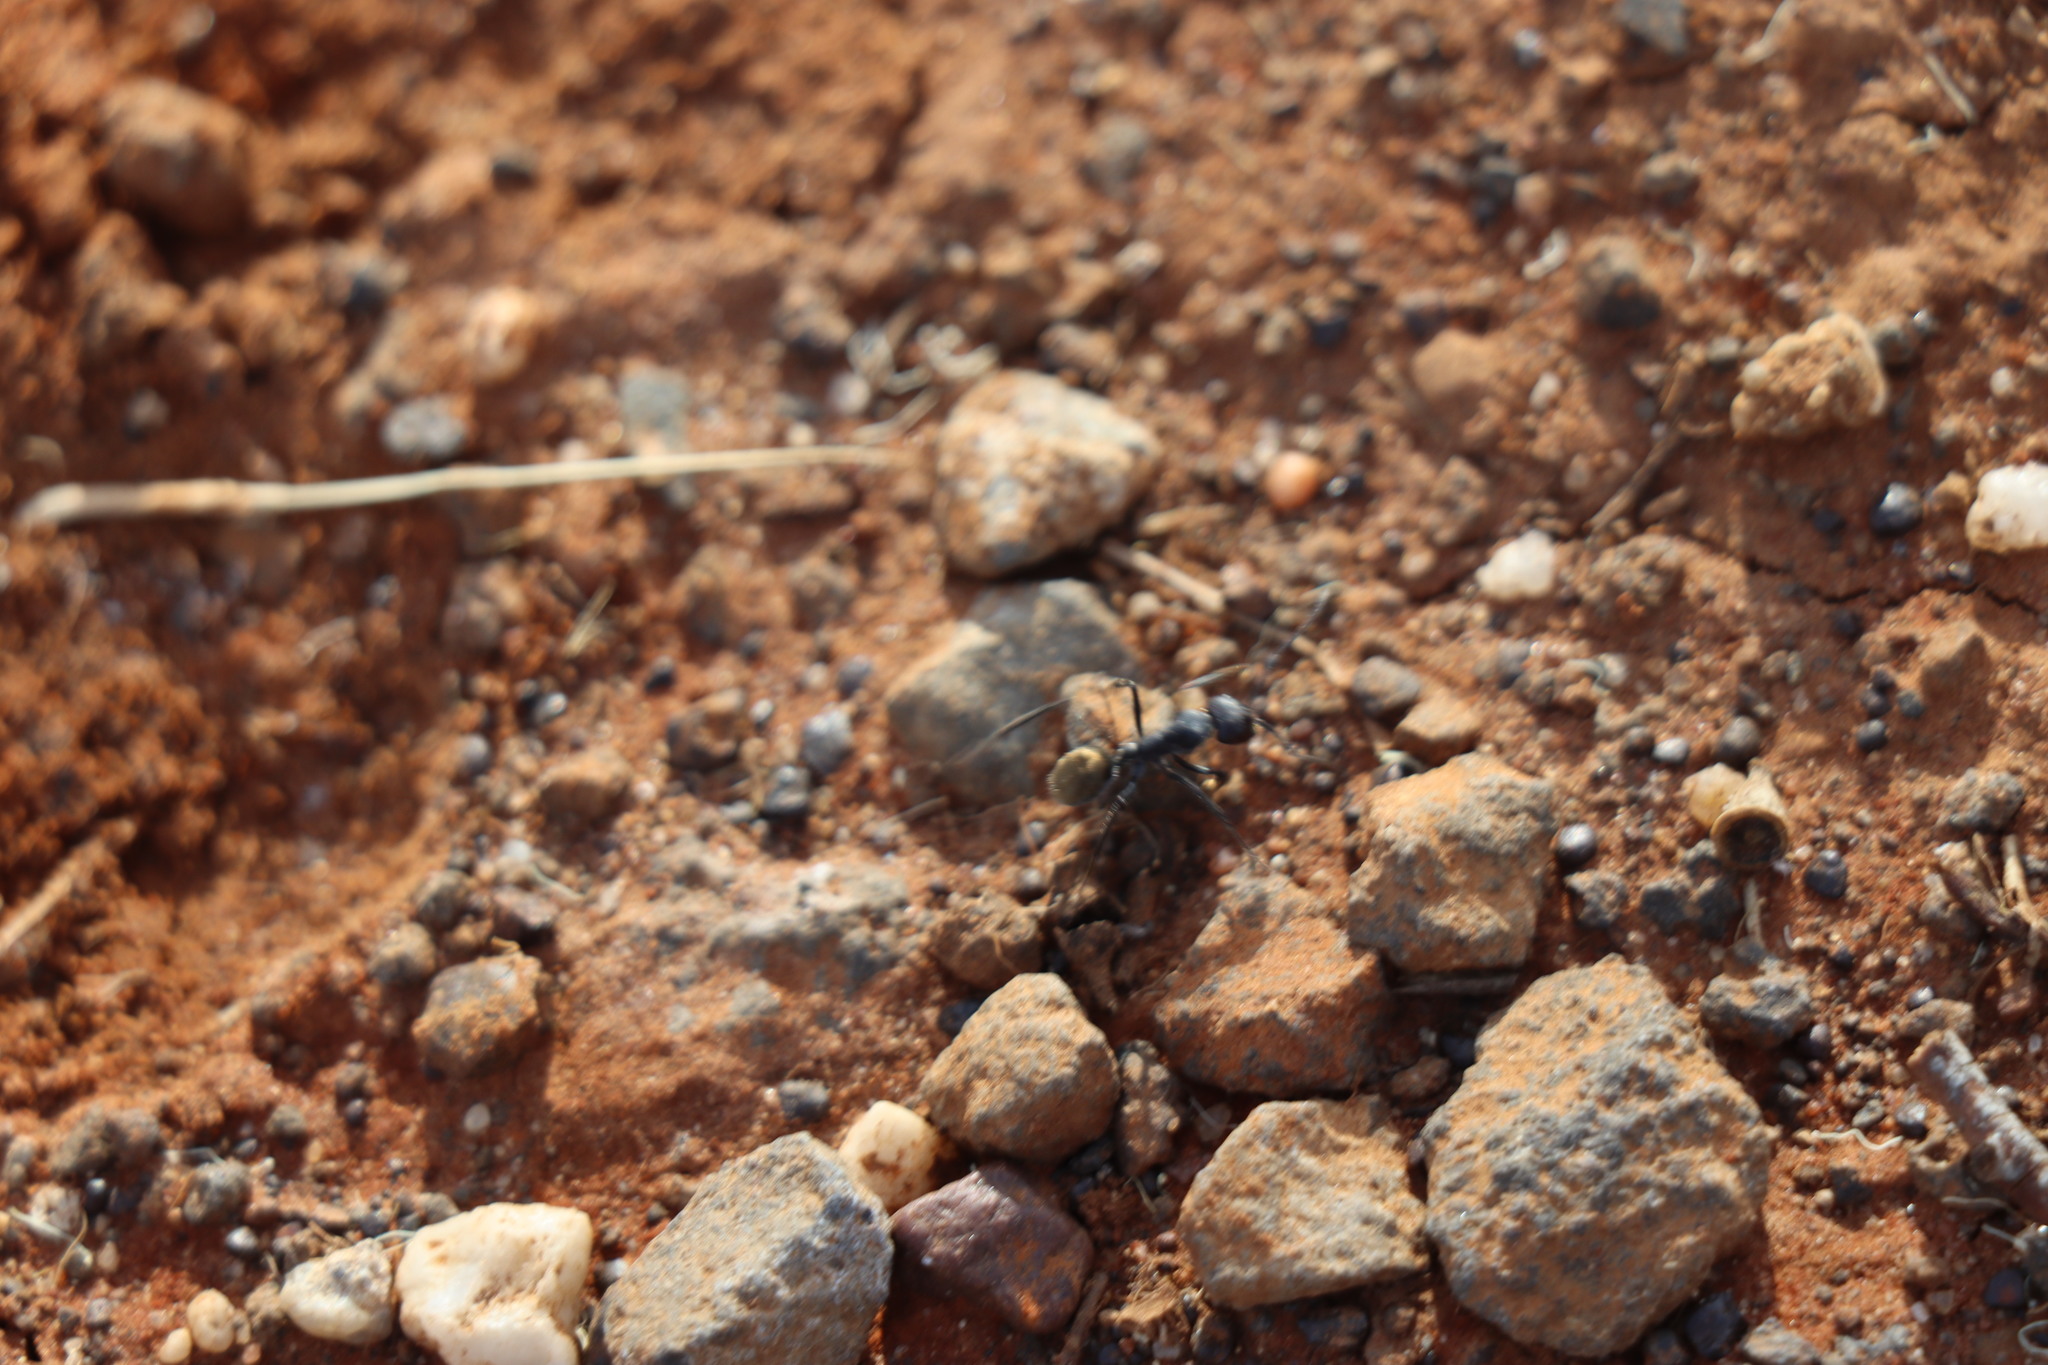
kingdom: Animalia
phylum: Arthropoda
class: Insecta
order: Hymenoptera
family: Formicidae
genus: Camponotus
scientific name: Camponotus suffusus
